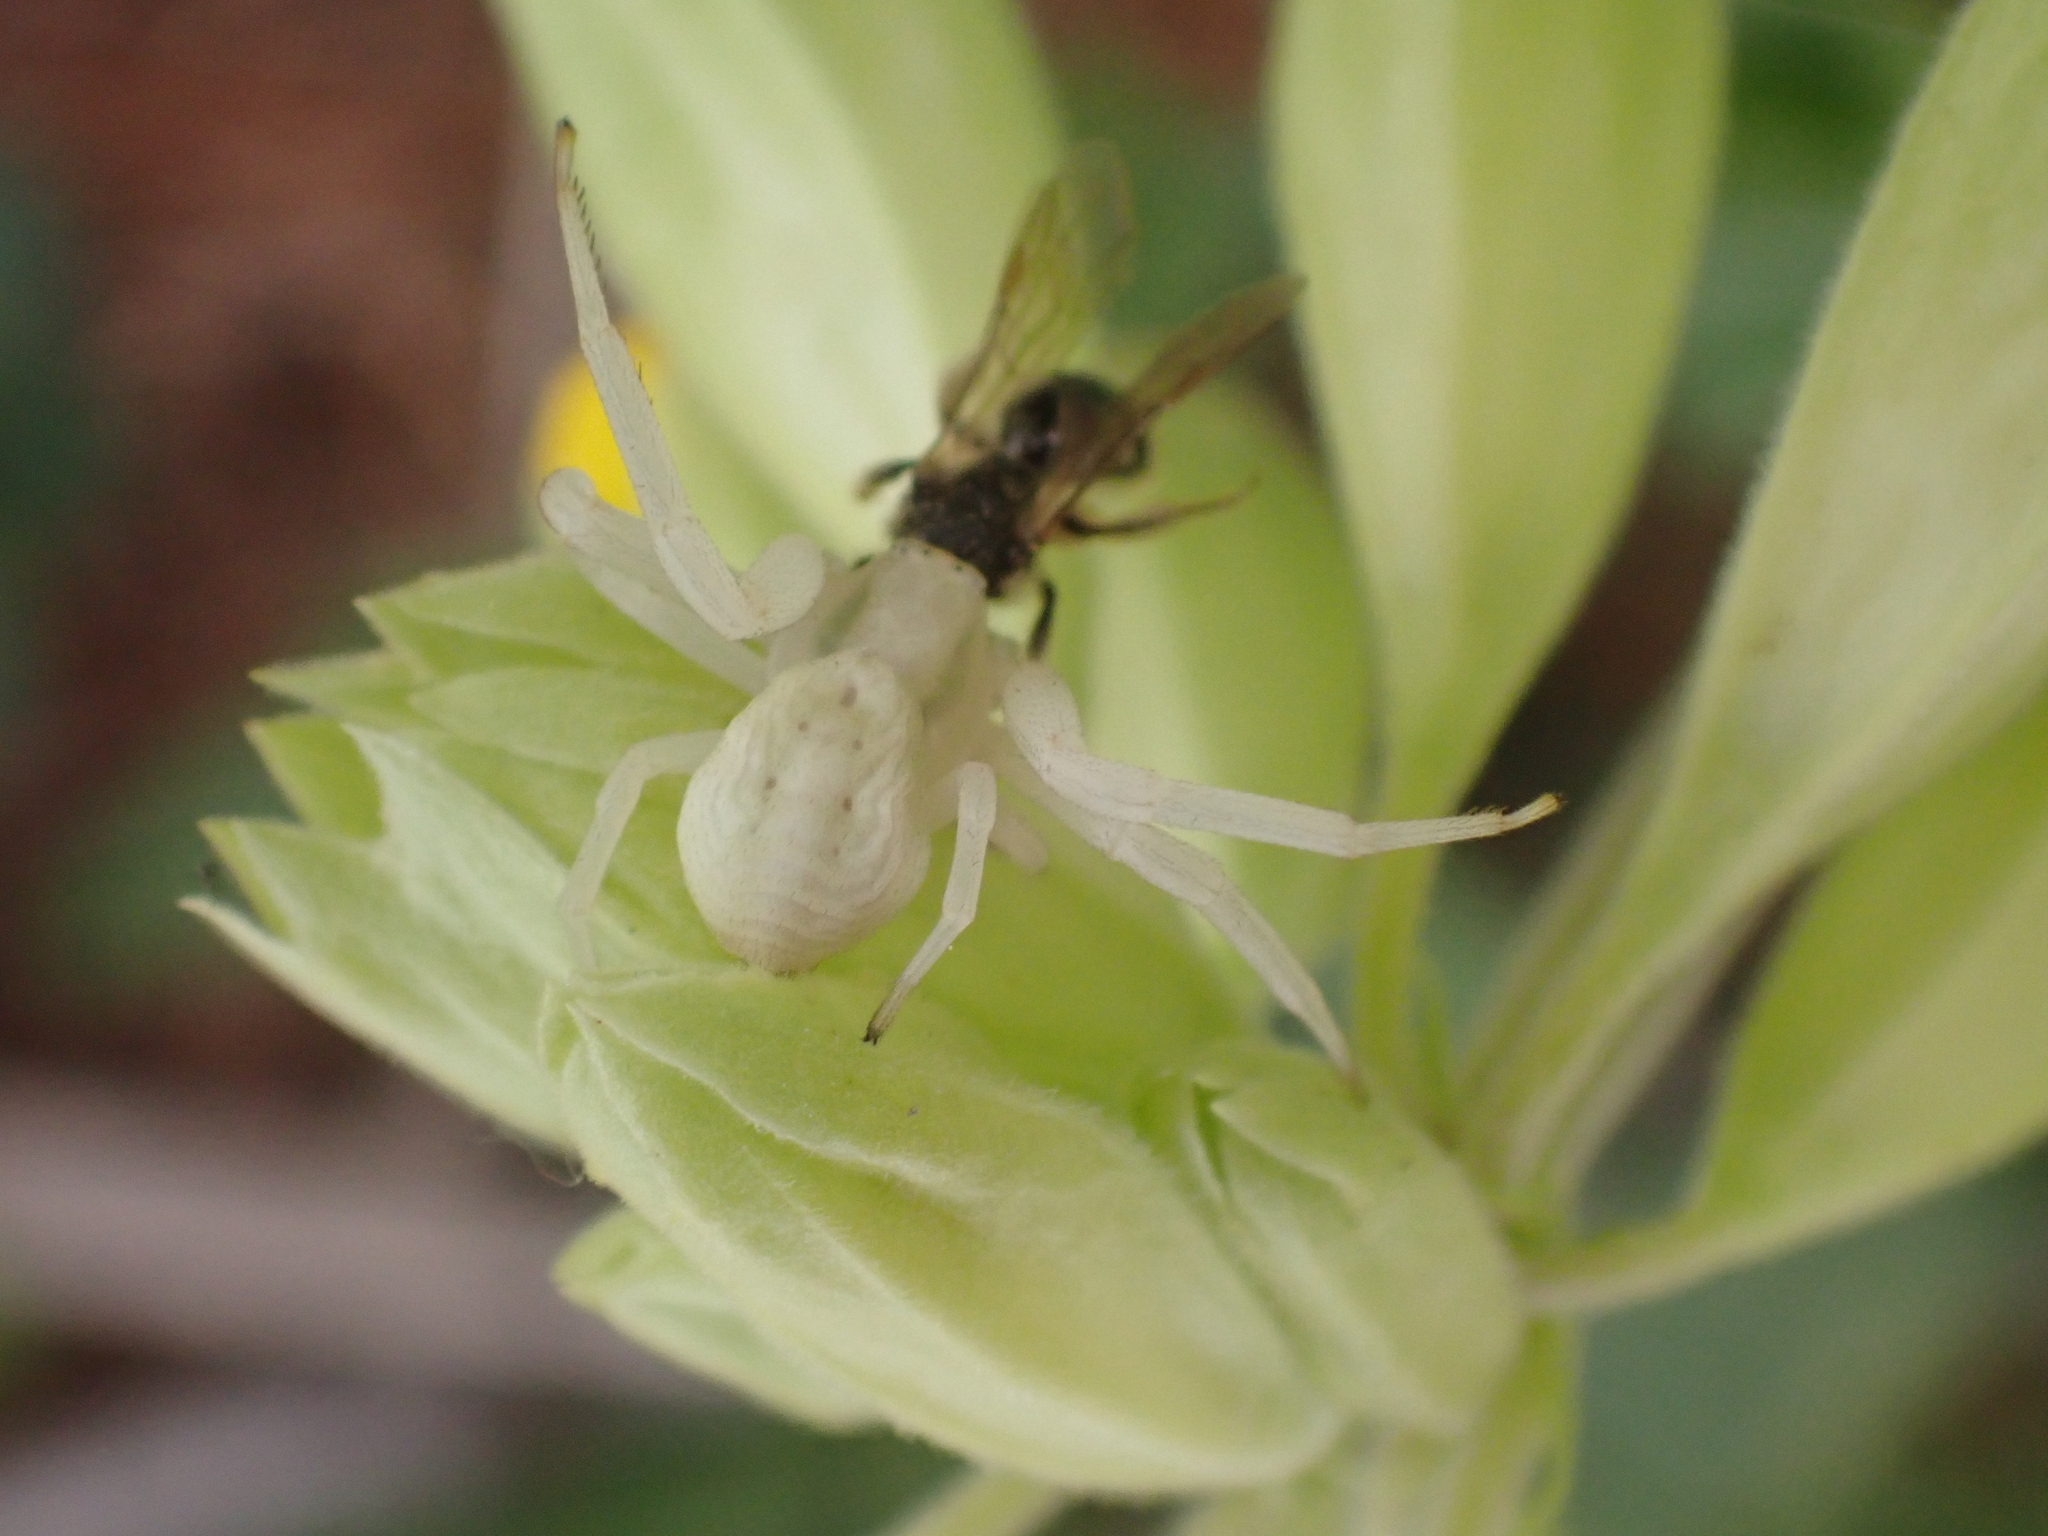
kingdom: Animalia
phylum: Arthropoda
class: Arachnida
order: Araneae
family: Thomisidae
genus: Misumena
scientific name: Misumena vatia
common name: Goldenrod crab spider
